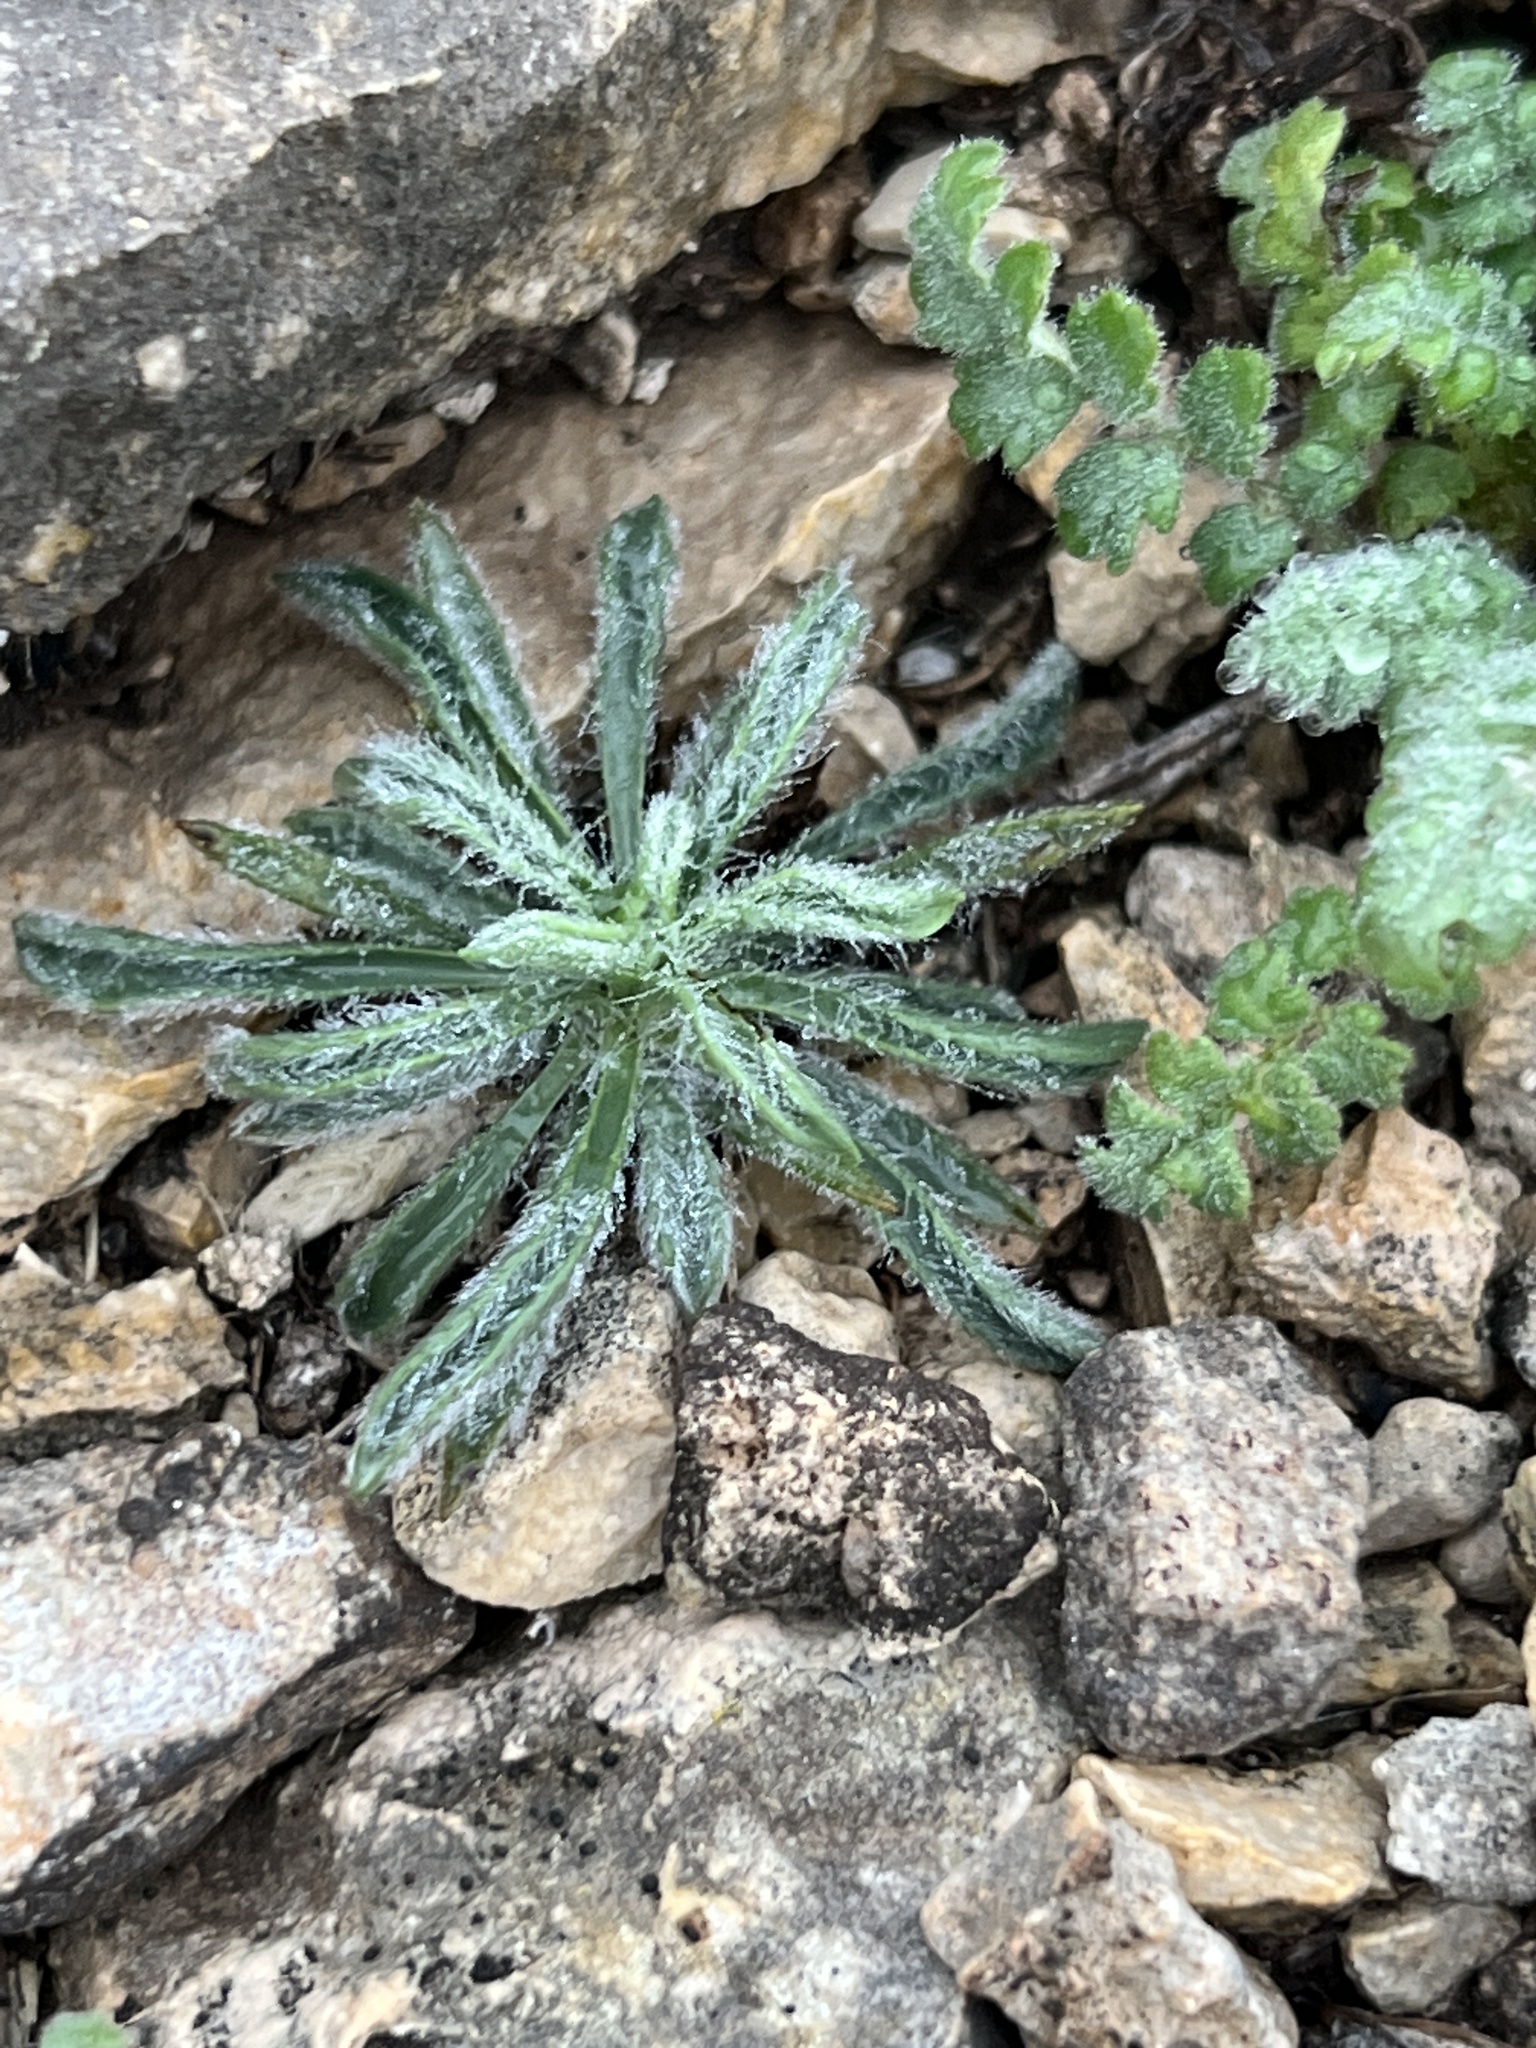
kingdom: Plantae
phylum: Tracheophyta
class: Magnoliopsida
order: Lamiales
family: Plantaginaceae
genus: Plantago
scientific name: Plantago helleri
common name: Heller's plantain
